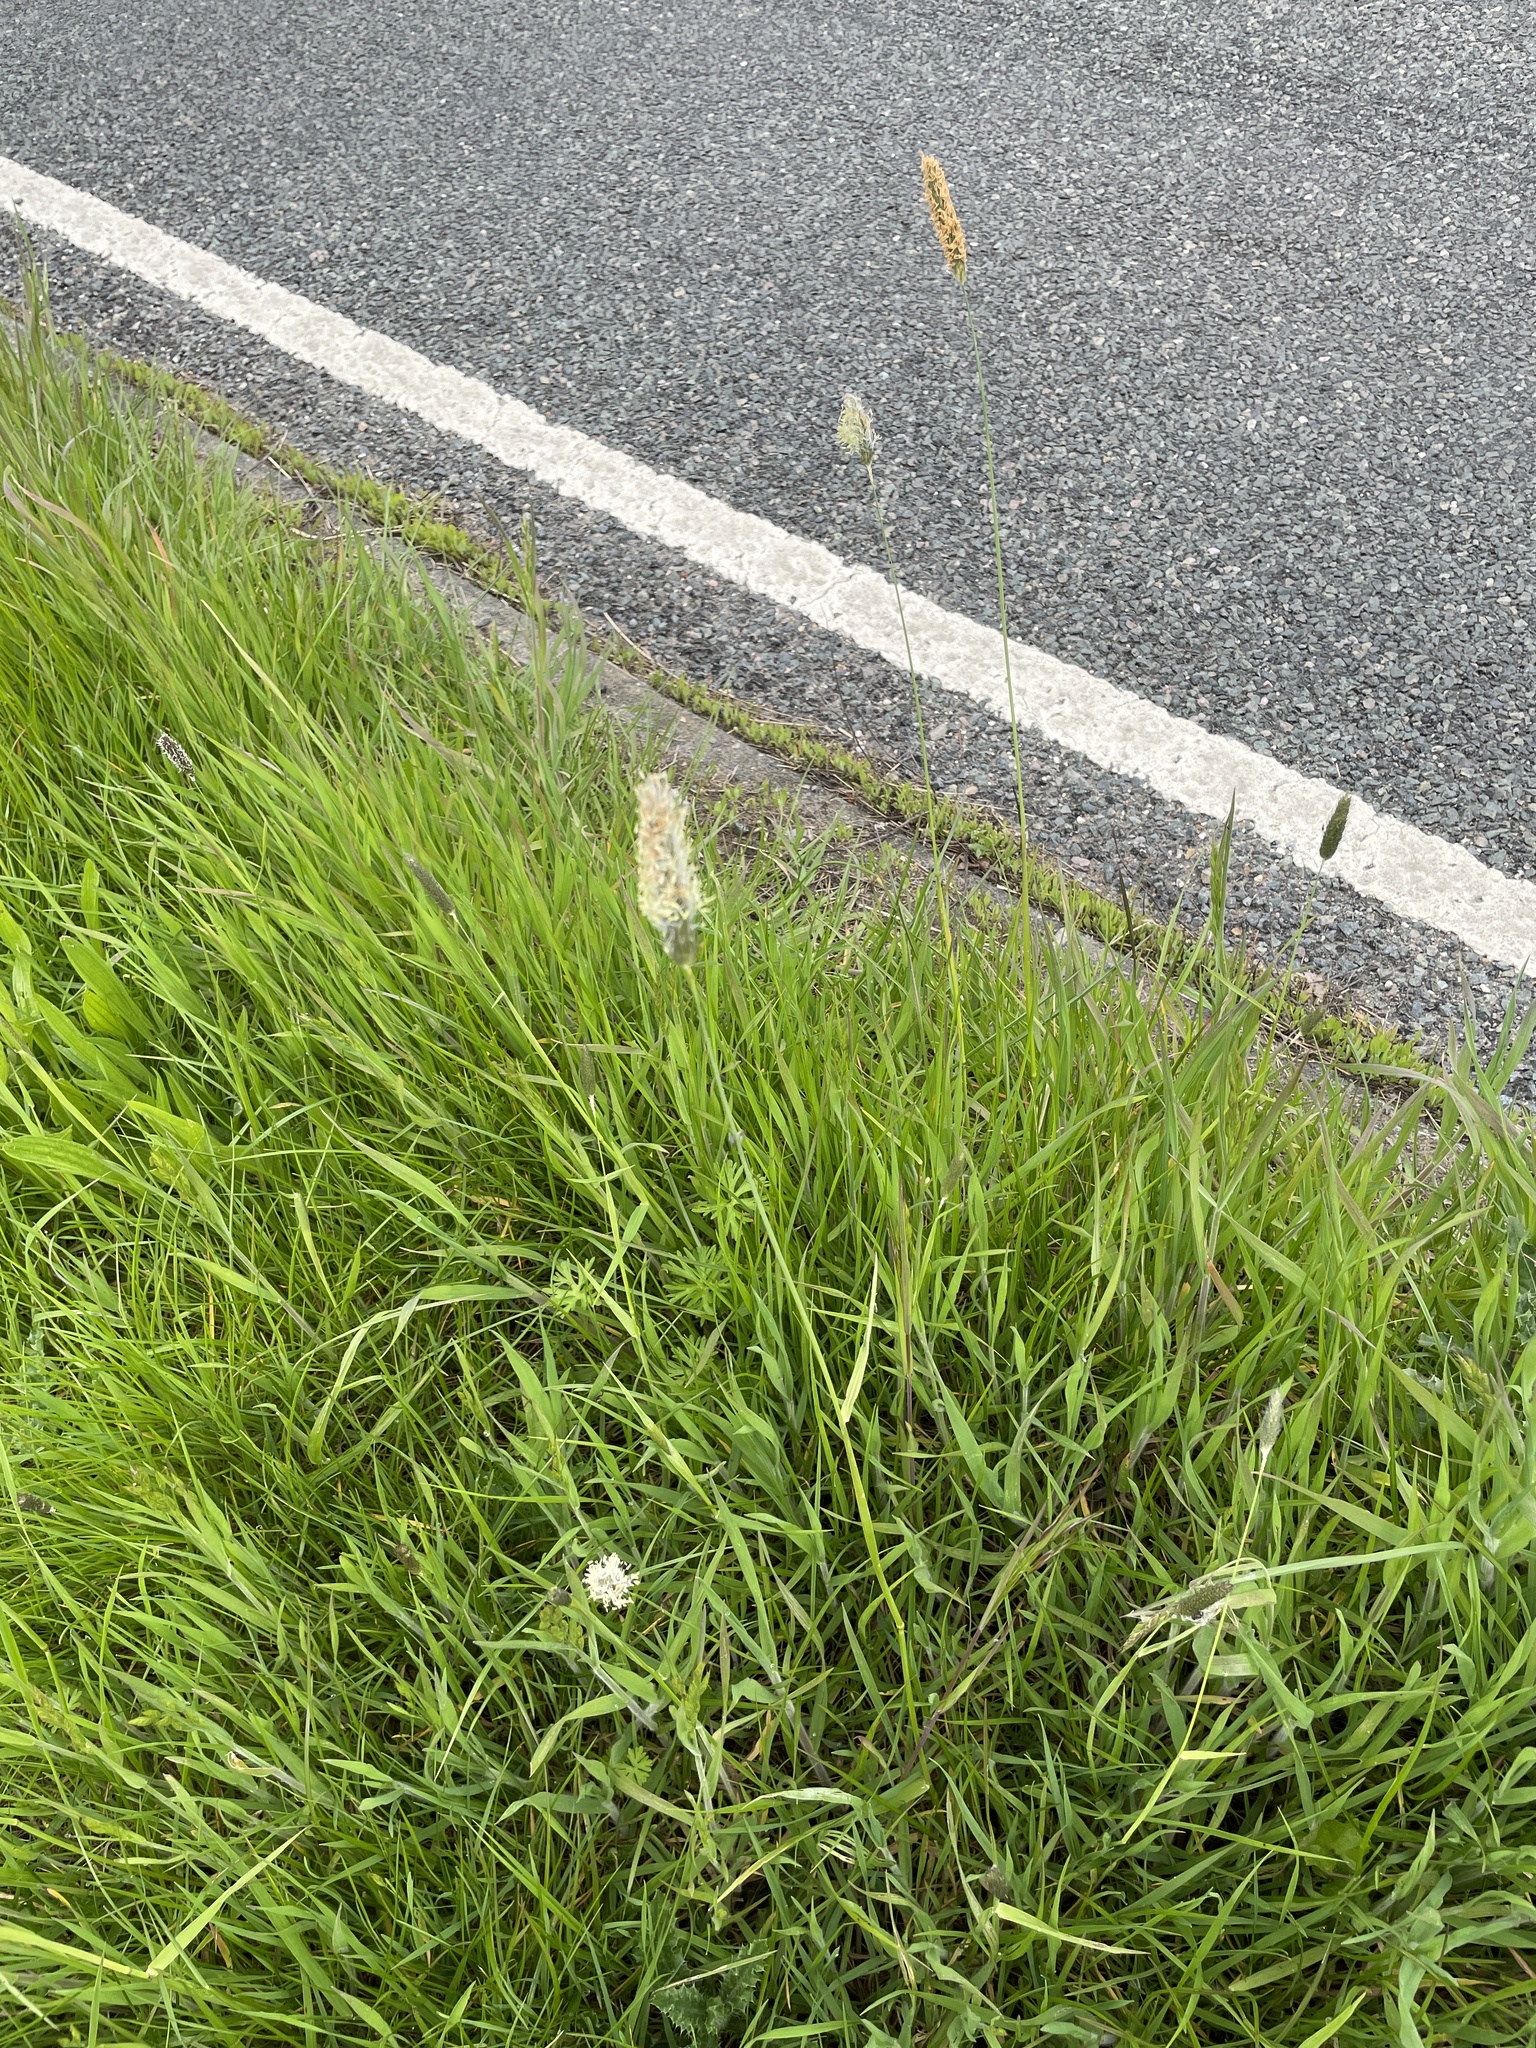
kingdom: Plantae
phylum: Tracheophyta
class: Liliopsida
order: Poales
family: Poaceae
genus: Alopecurus
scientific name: Alopecurus pratensis
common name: Meadow foxtail
